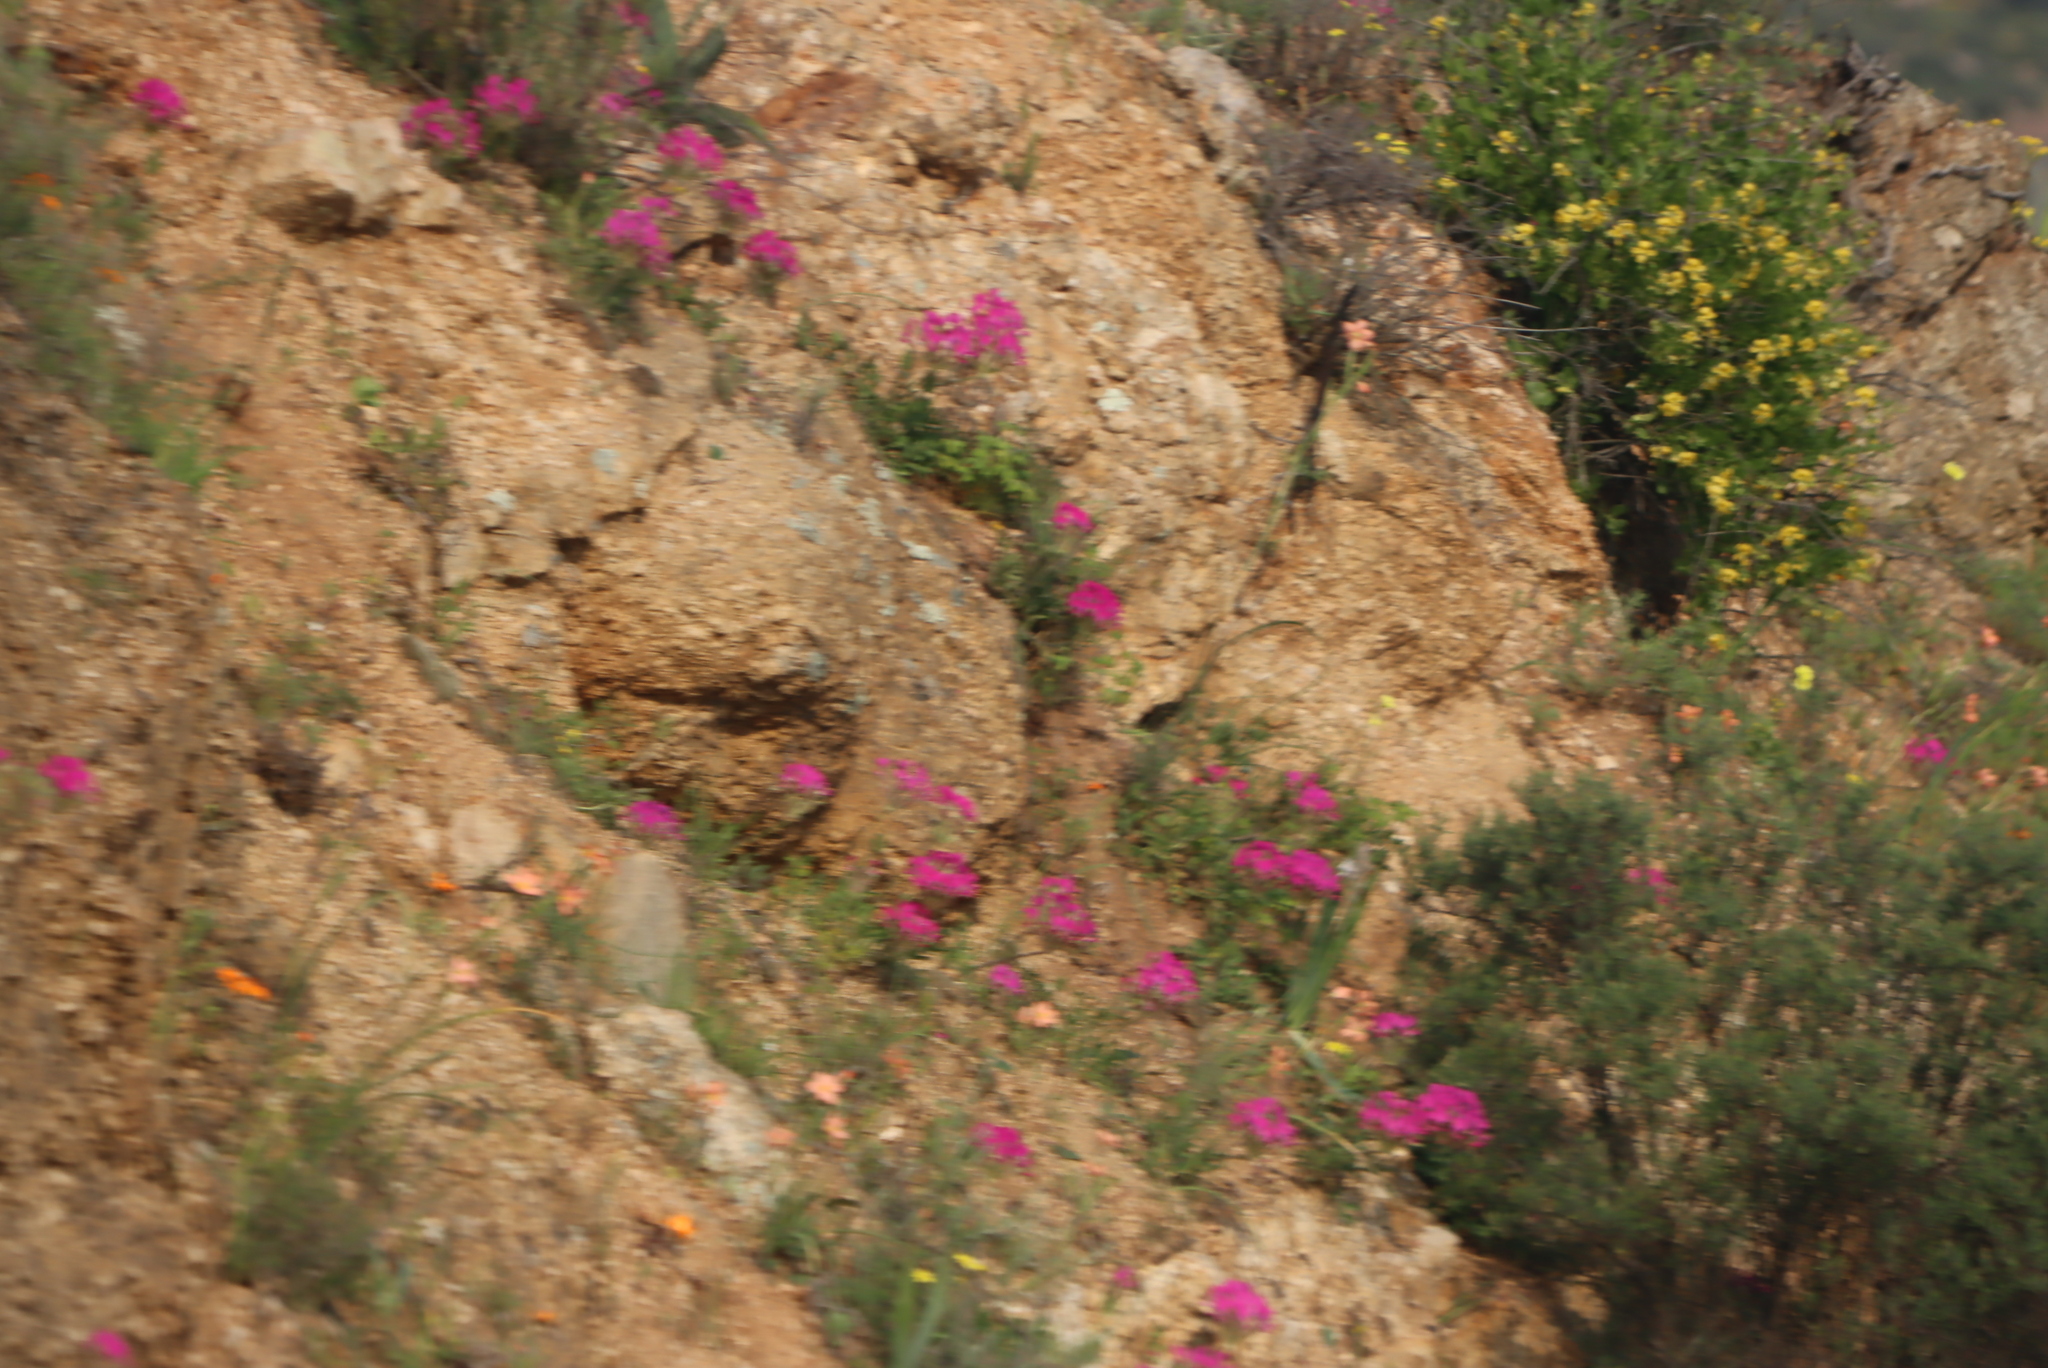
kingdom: Plantae
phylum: Tracheophyta
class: Magnoliopsida
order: Geraniales
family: Geraniaceae
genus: Pelargonium
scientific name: Pelargonium incrassatum
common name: Namaqualand beauty
